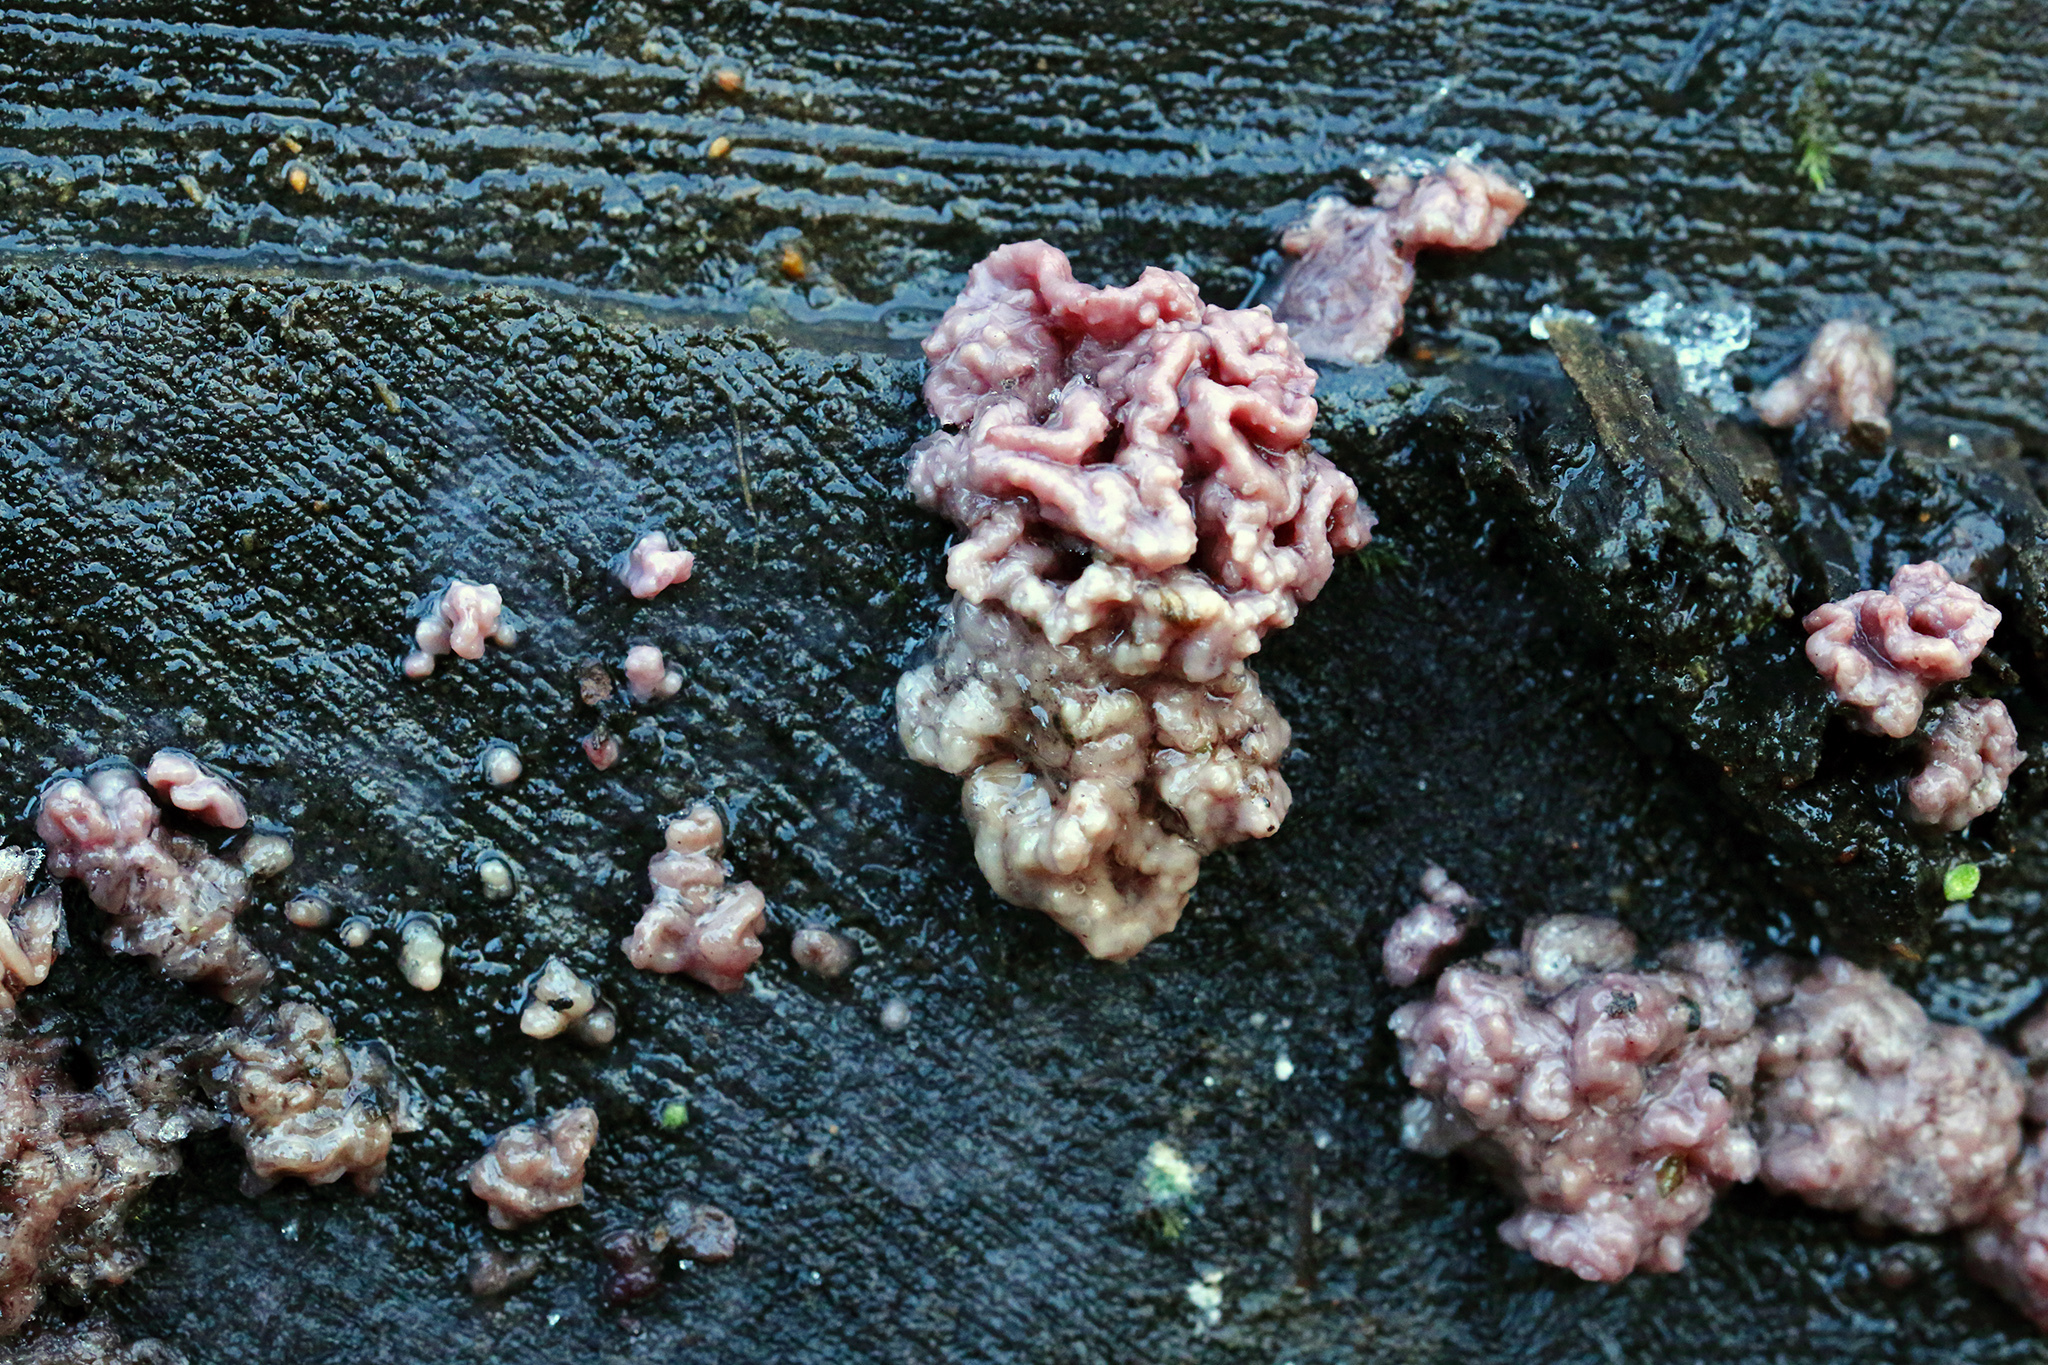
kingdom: Fungi
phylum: Ascomycota
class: Leotiomycetes
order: Helotiales
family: Gelatinodiscaceae
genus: Ascocoryne
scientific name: Ascocoryne sarcoides
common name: Purple jellydisc
